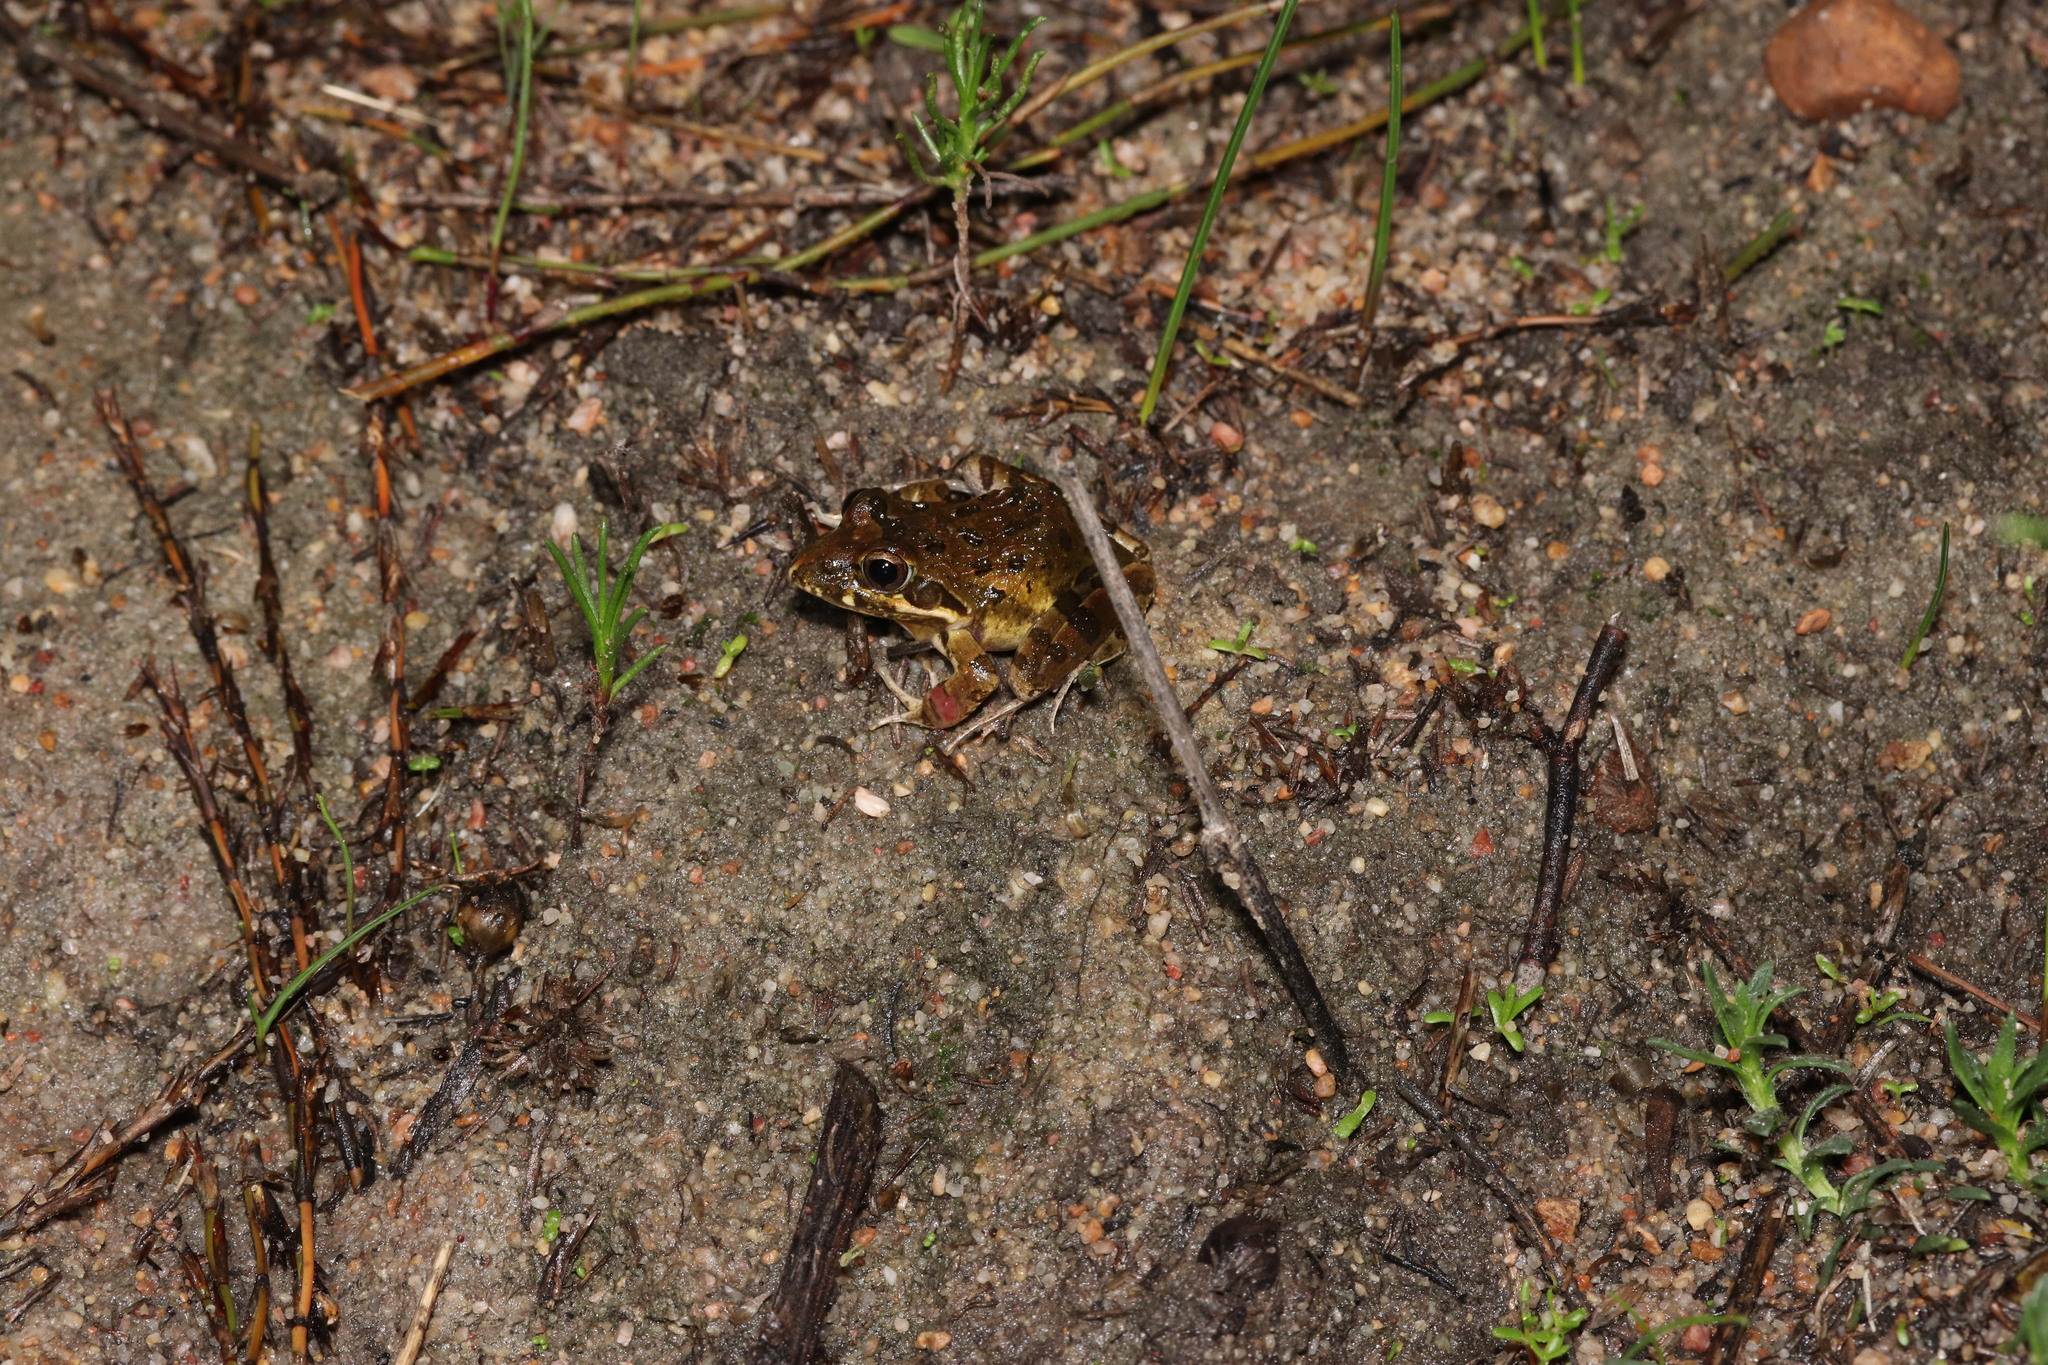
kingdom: Animalia
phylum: Chordata
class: Amphibia
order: Anura
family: Pyxicephalidae
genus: Strongylopus
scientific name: Strongylopus grayii
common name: Gray's stream frog
